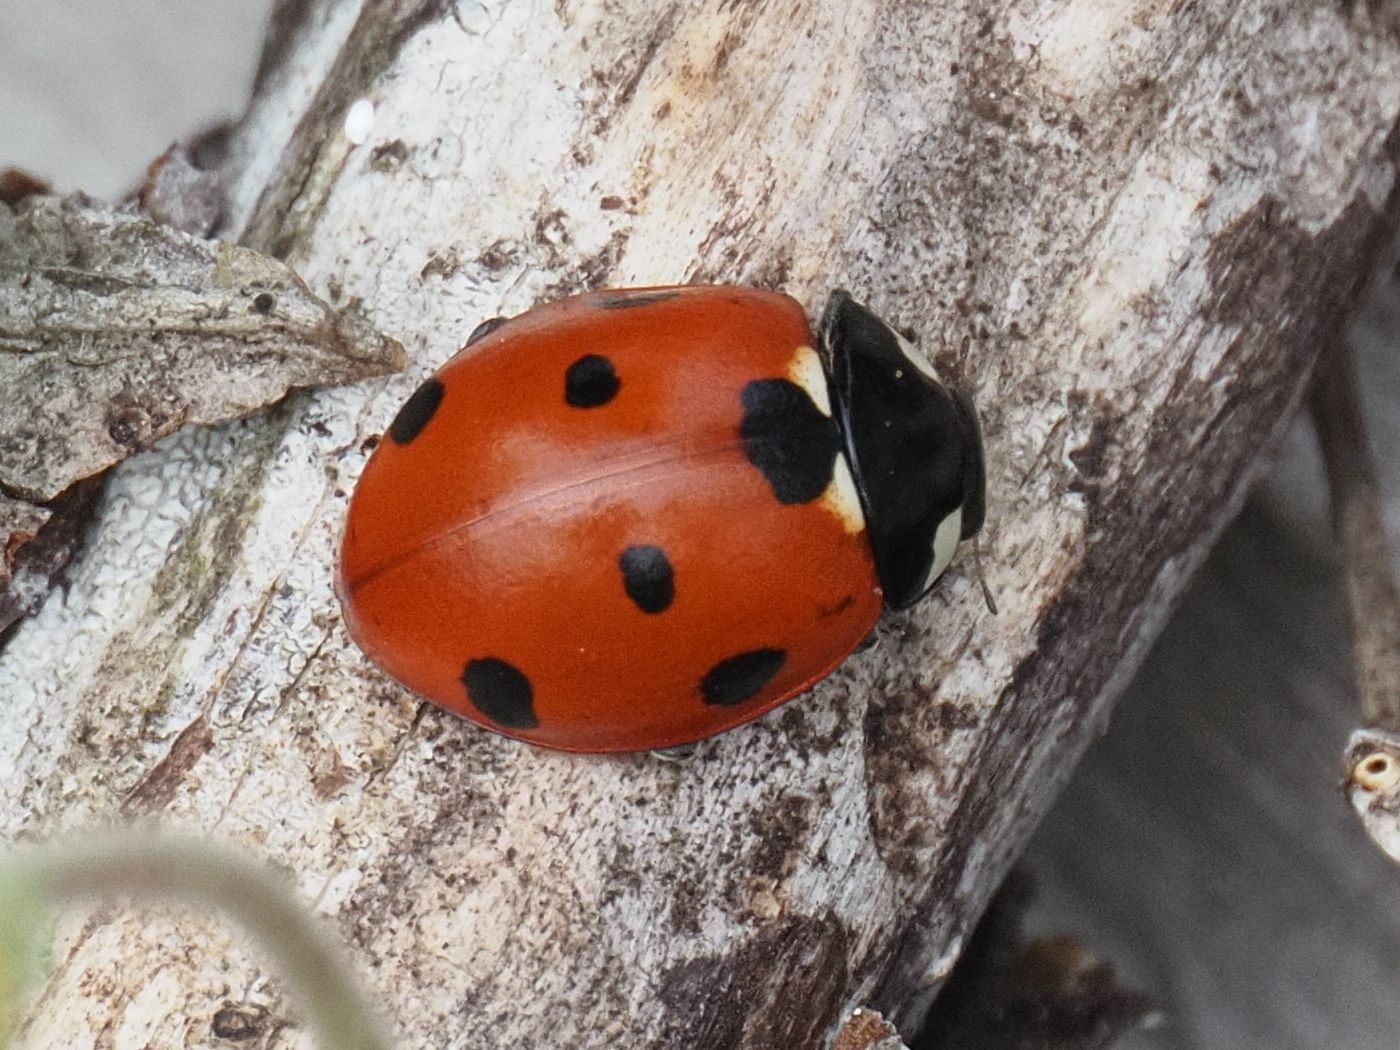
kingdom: Animalia
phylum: Arthropoda
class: Insecta
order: Coleoptera
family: Coccinellidae
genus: Coccinella
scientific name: Coccinella septempunctata
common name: Sevenspotted lady beetle
